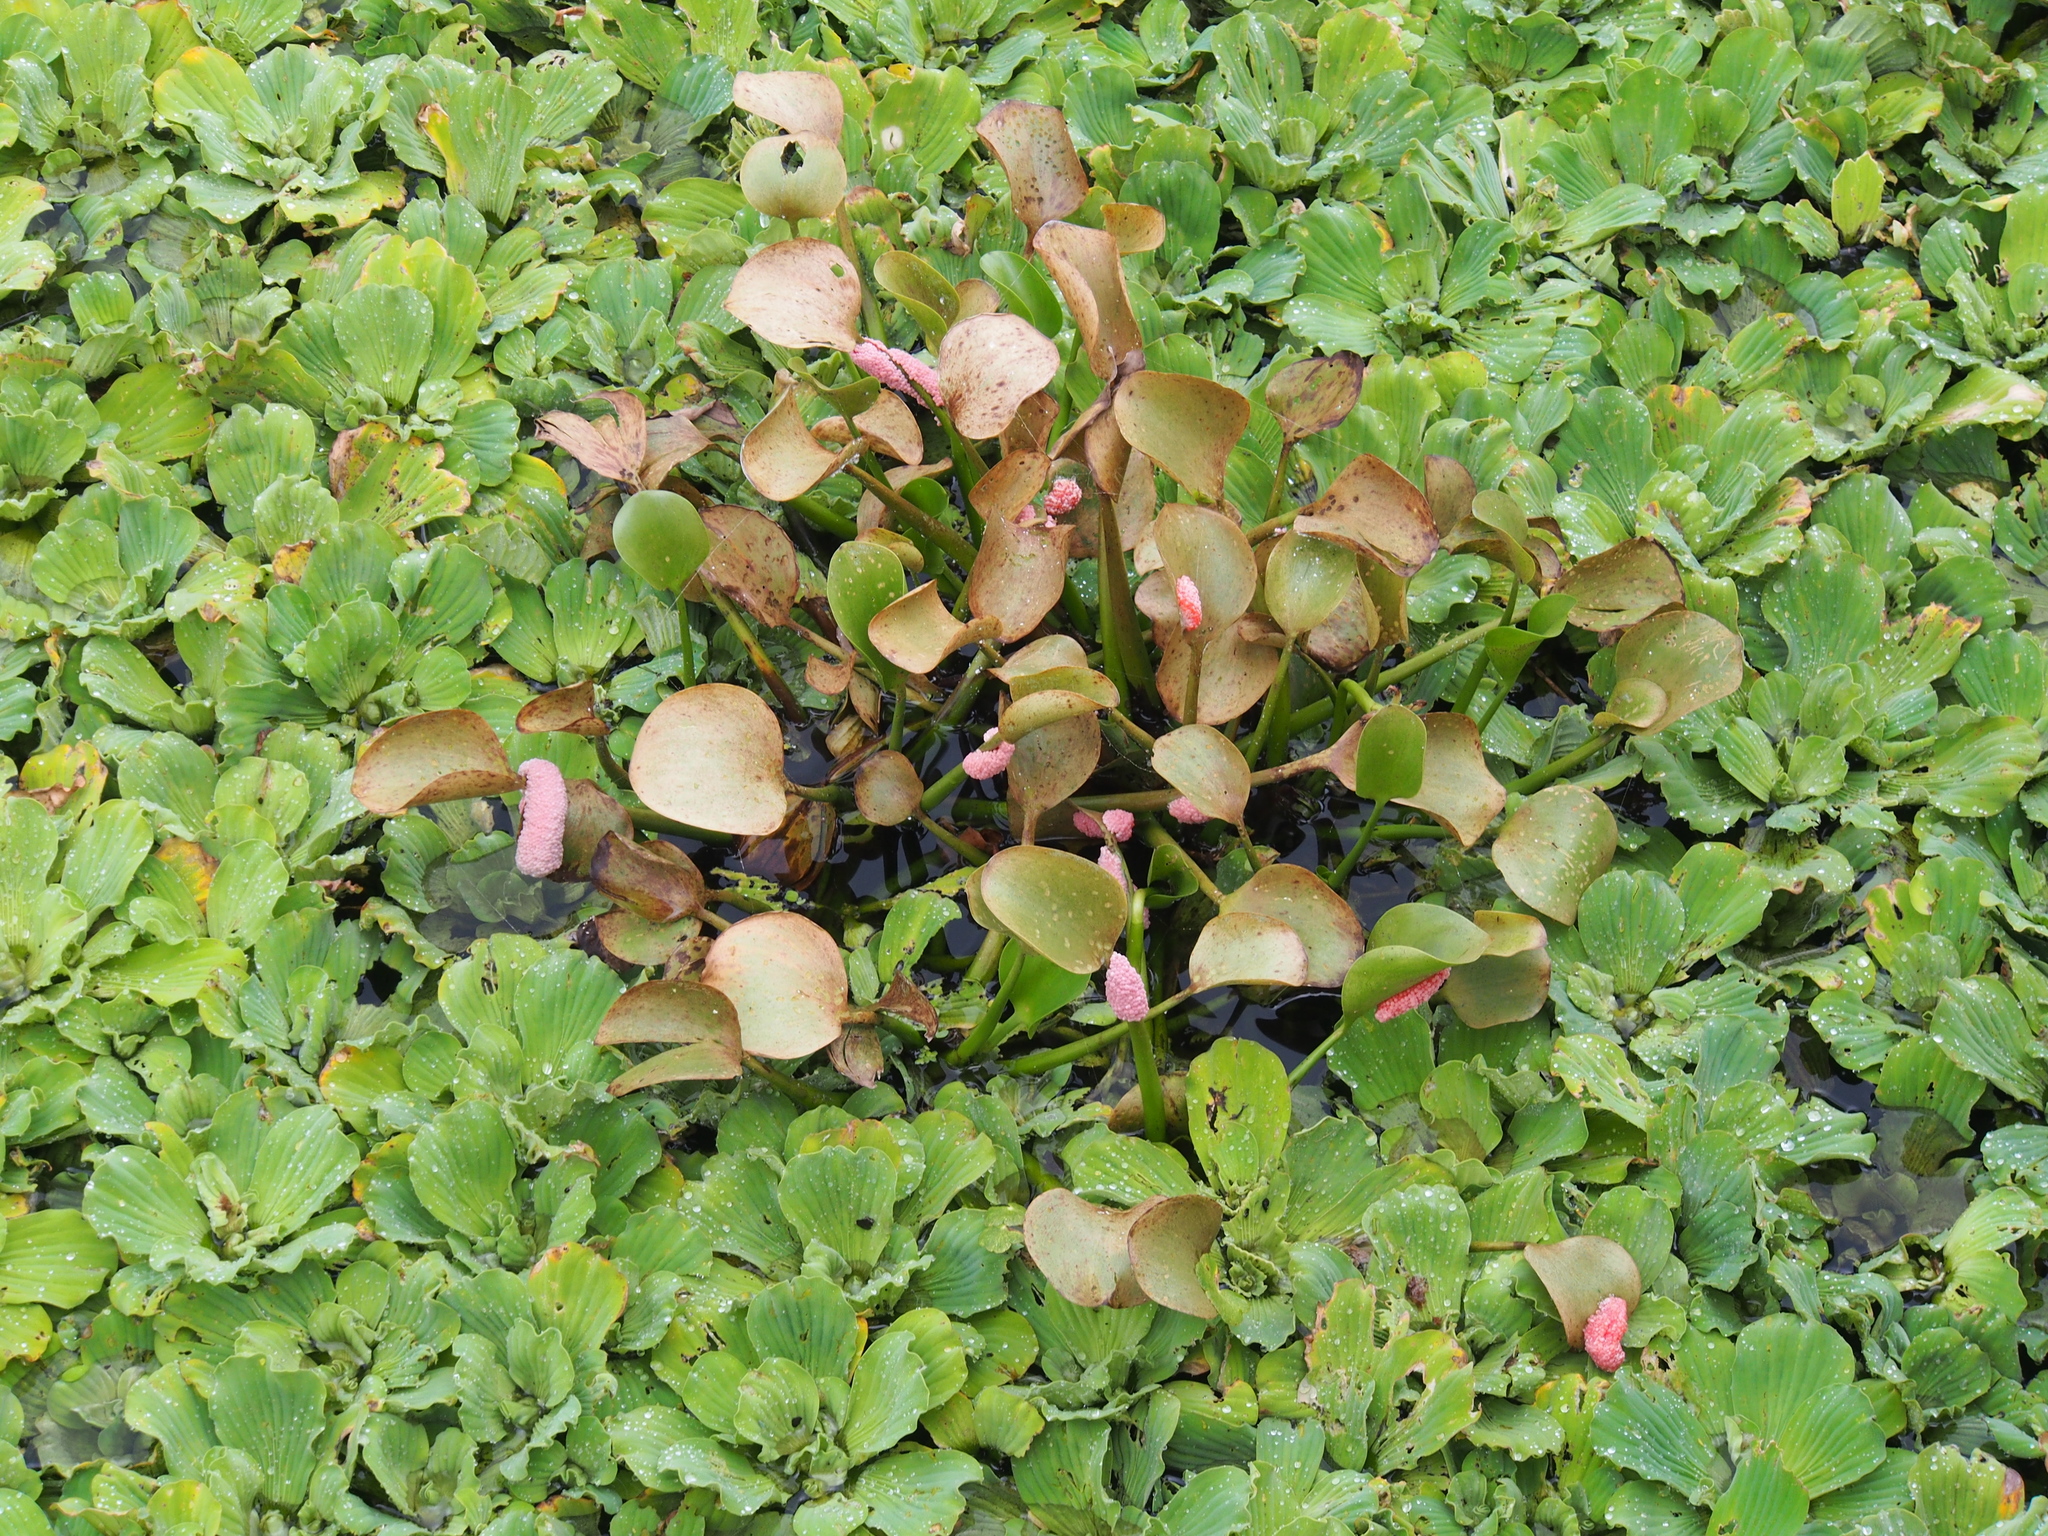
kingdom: Plantae
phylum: Tracheophyta
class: Liliopsida
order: Commelinales
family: Pontederiaceae
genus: Pontederia
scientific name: Pontederia crassipes
